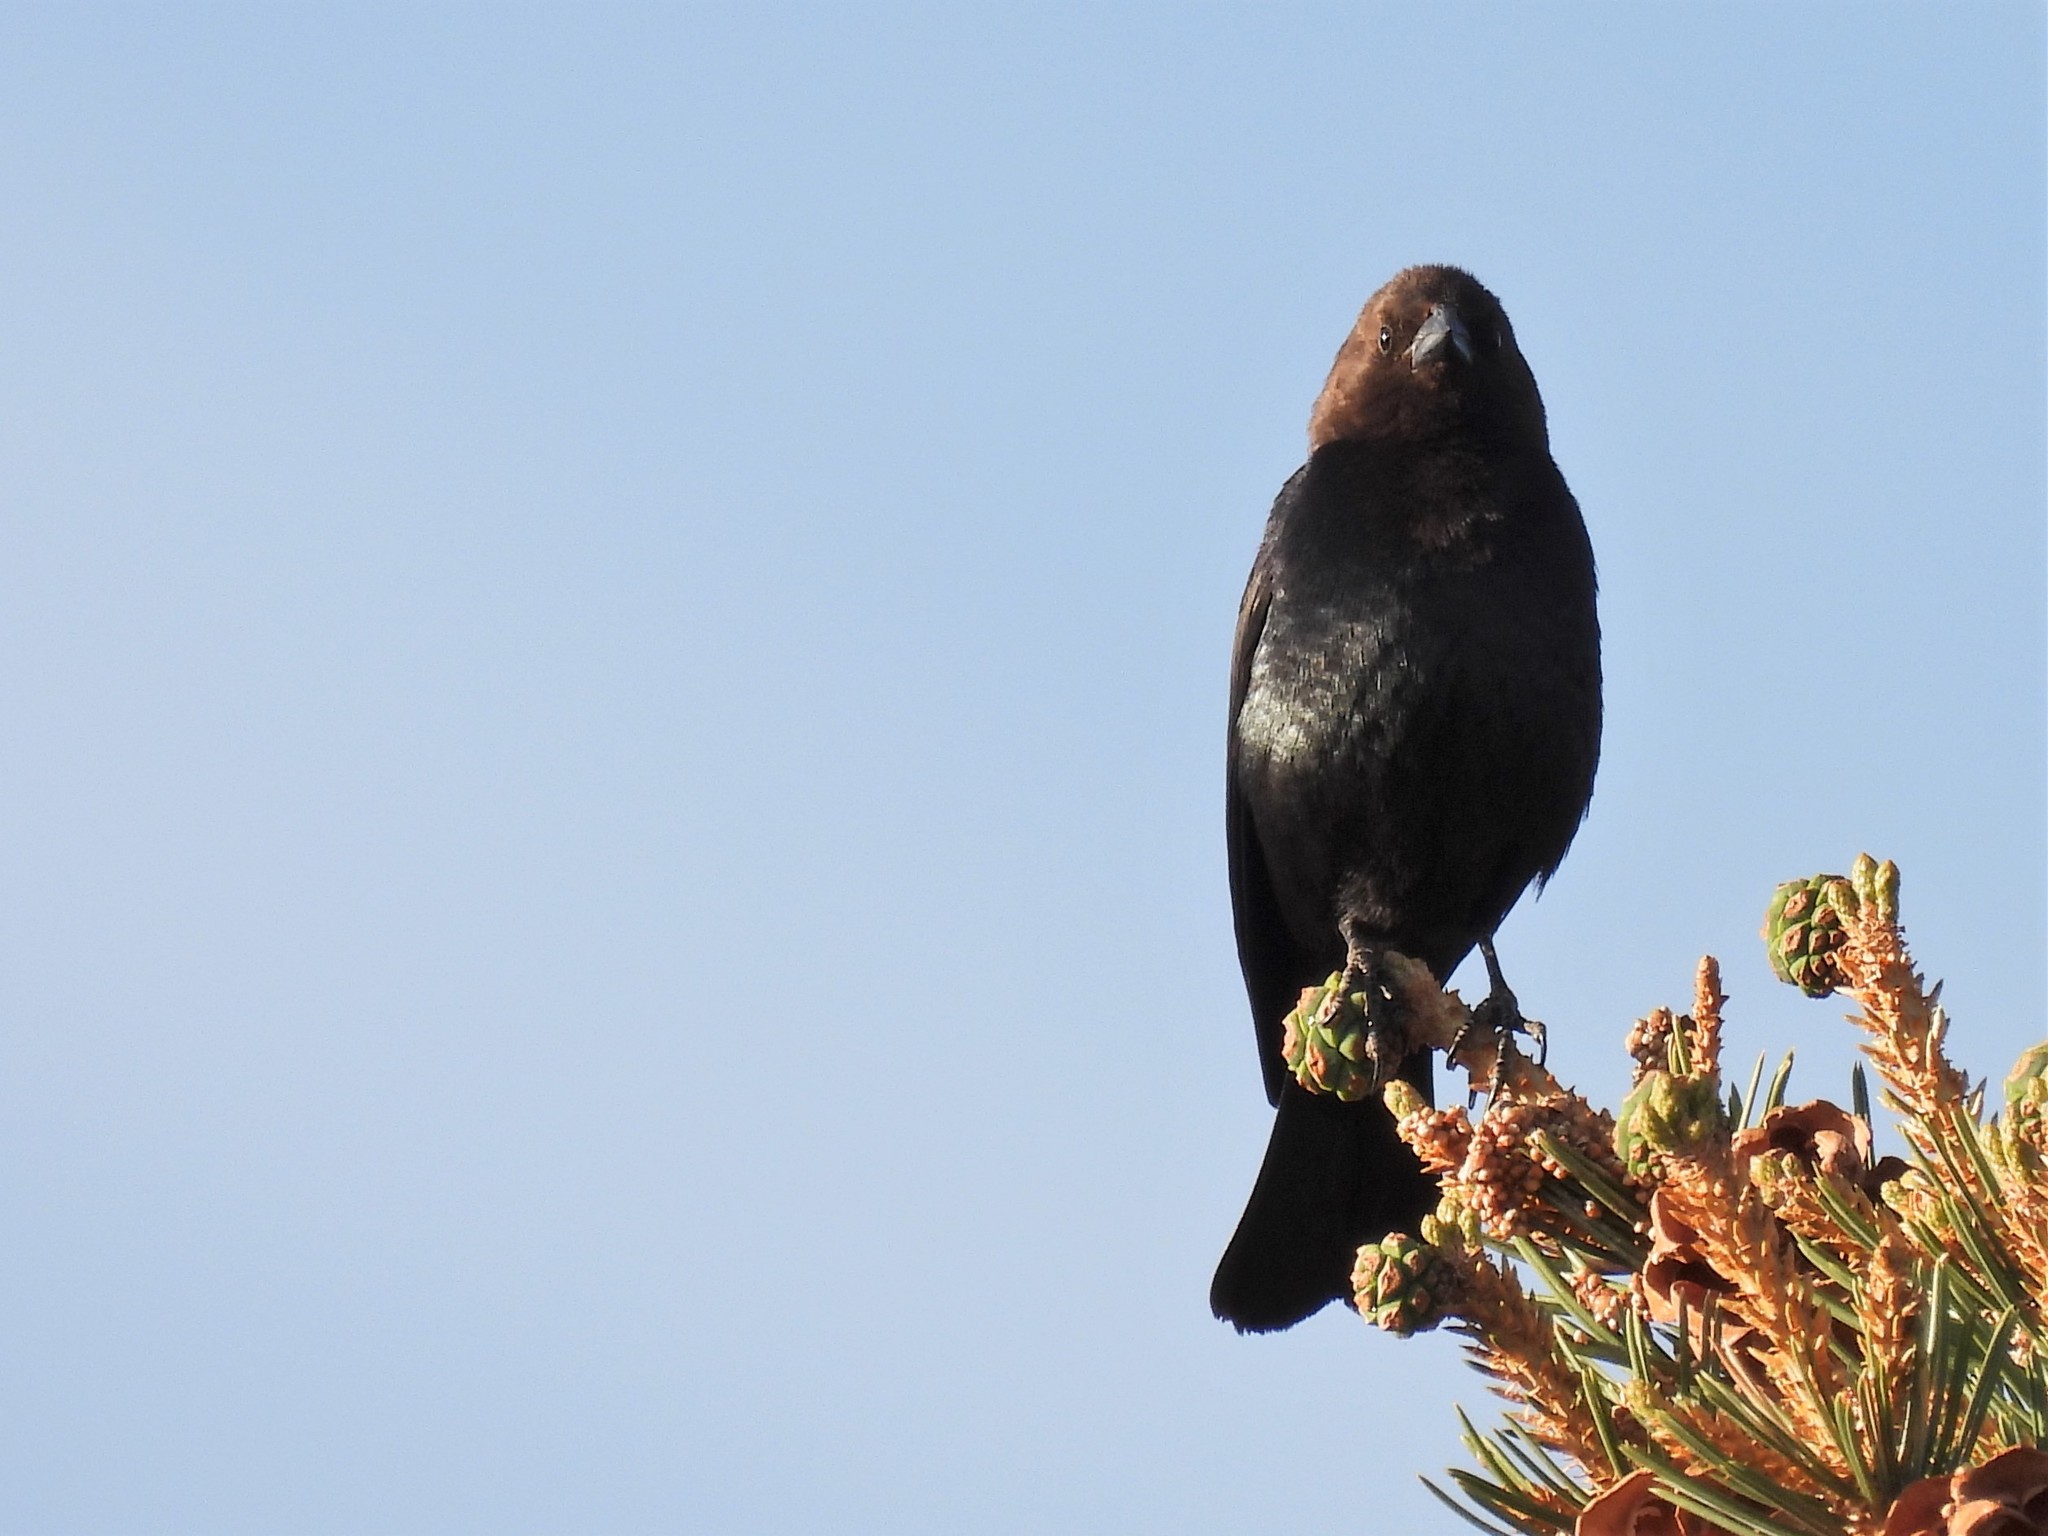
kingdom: Animalia
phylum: Chordata
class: Aves
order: Passeriformes
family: Icteridae
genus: Molothrus
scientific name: Molothrus ater
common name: Brown-headed cowbird
